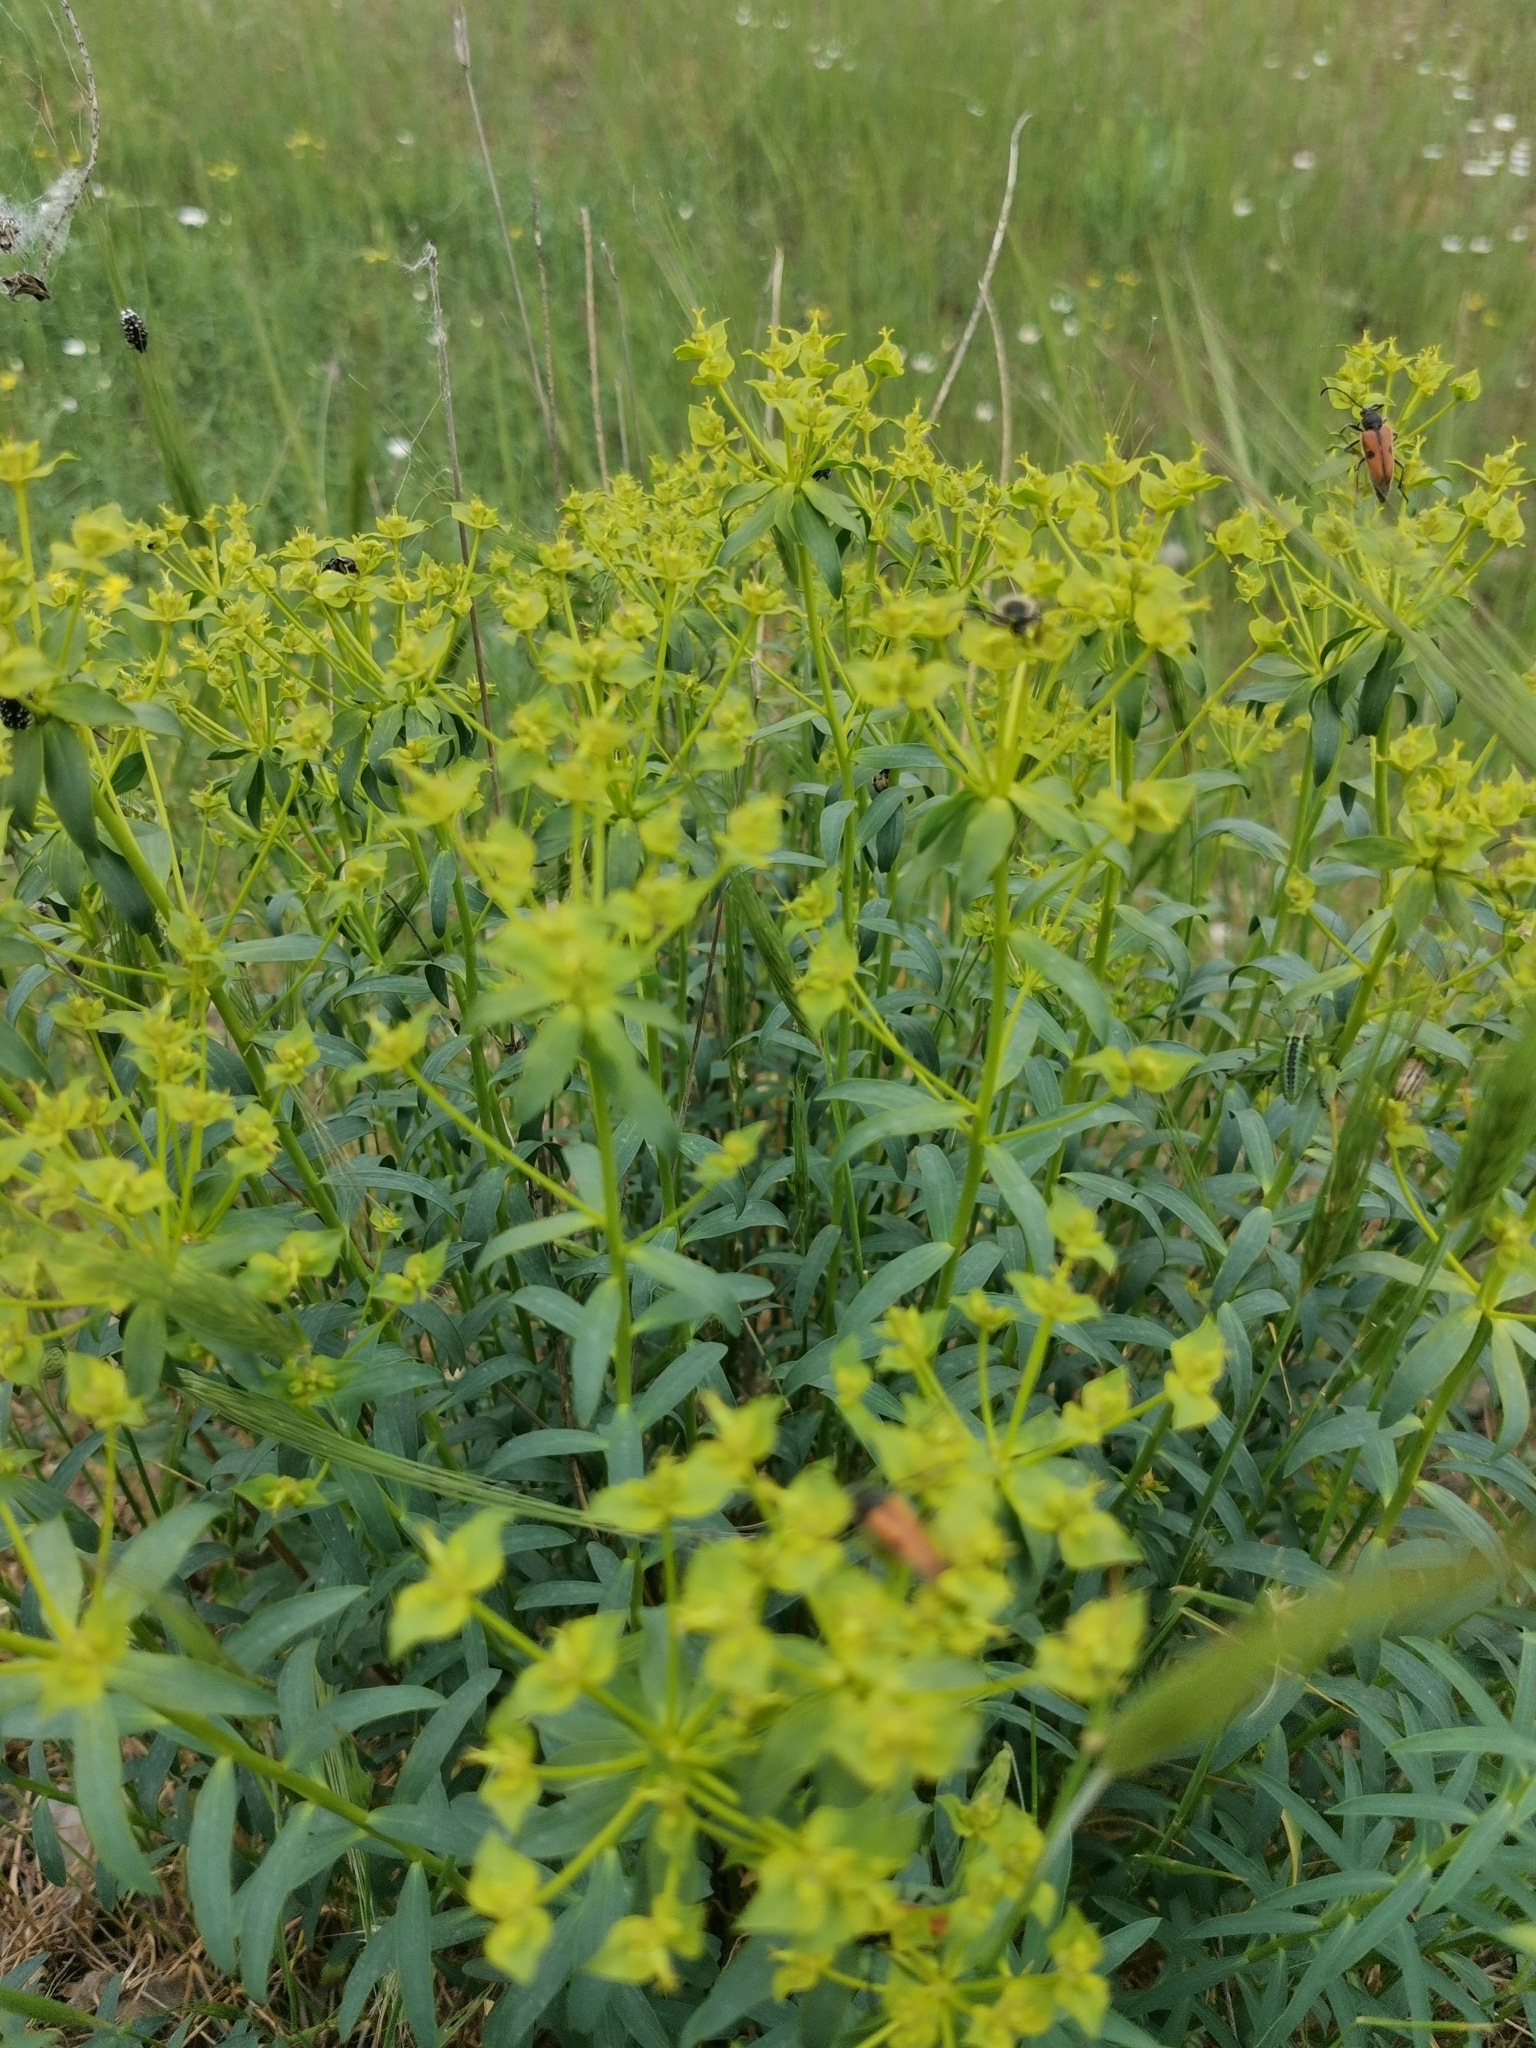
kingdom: Plantae
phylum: Tracheophyta
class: Magnoliopsida
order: Malpighiales
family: Euphorbiaceae
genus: Euphorbia
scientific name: Euphorbia seguieriana
